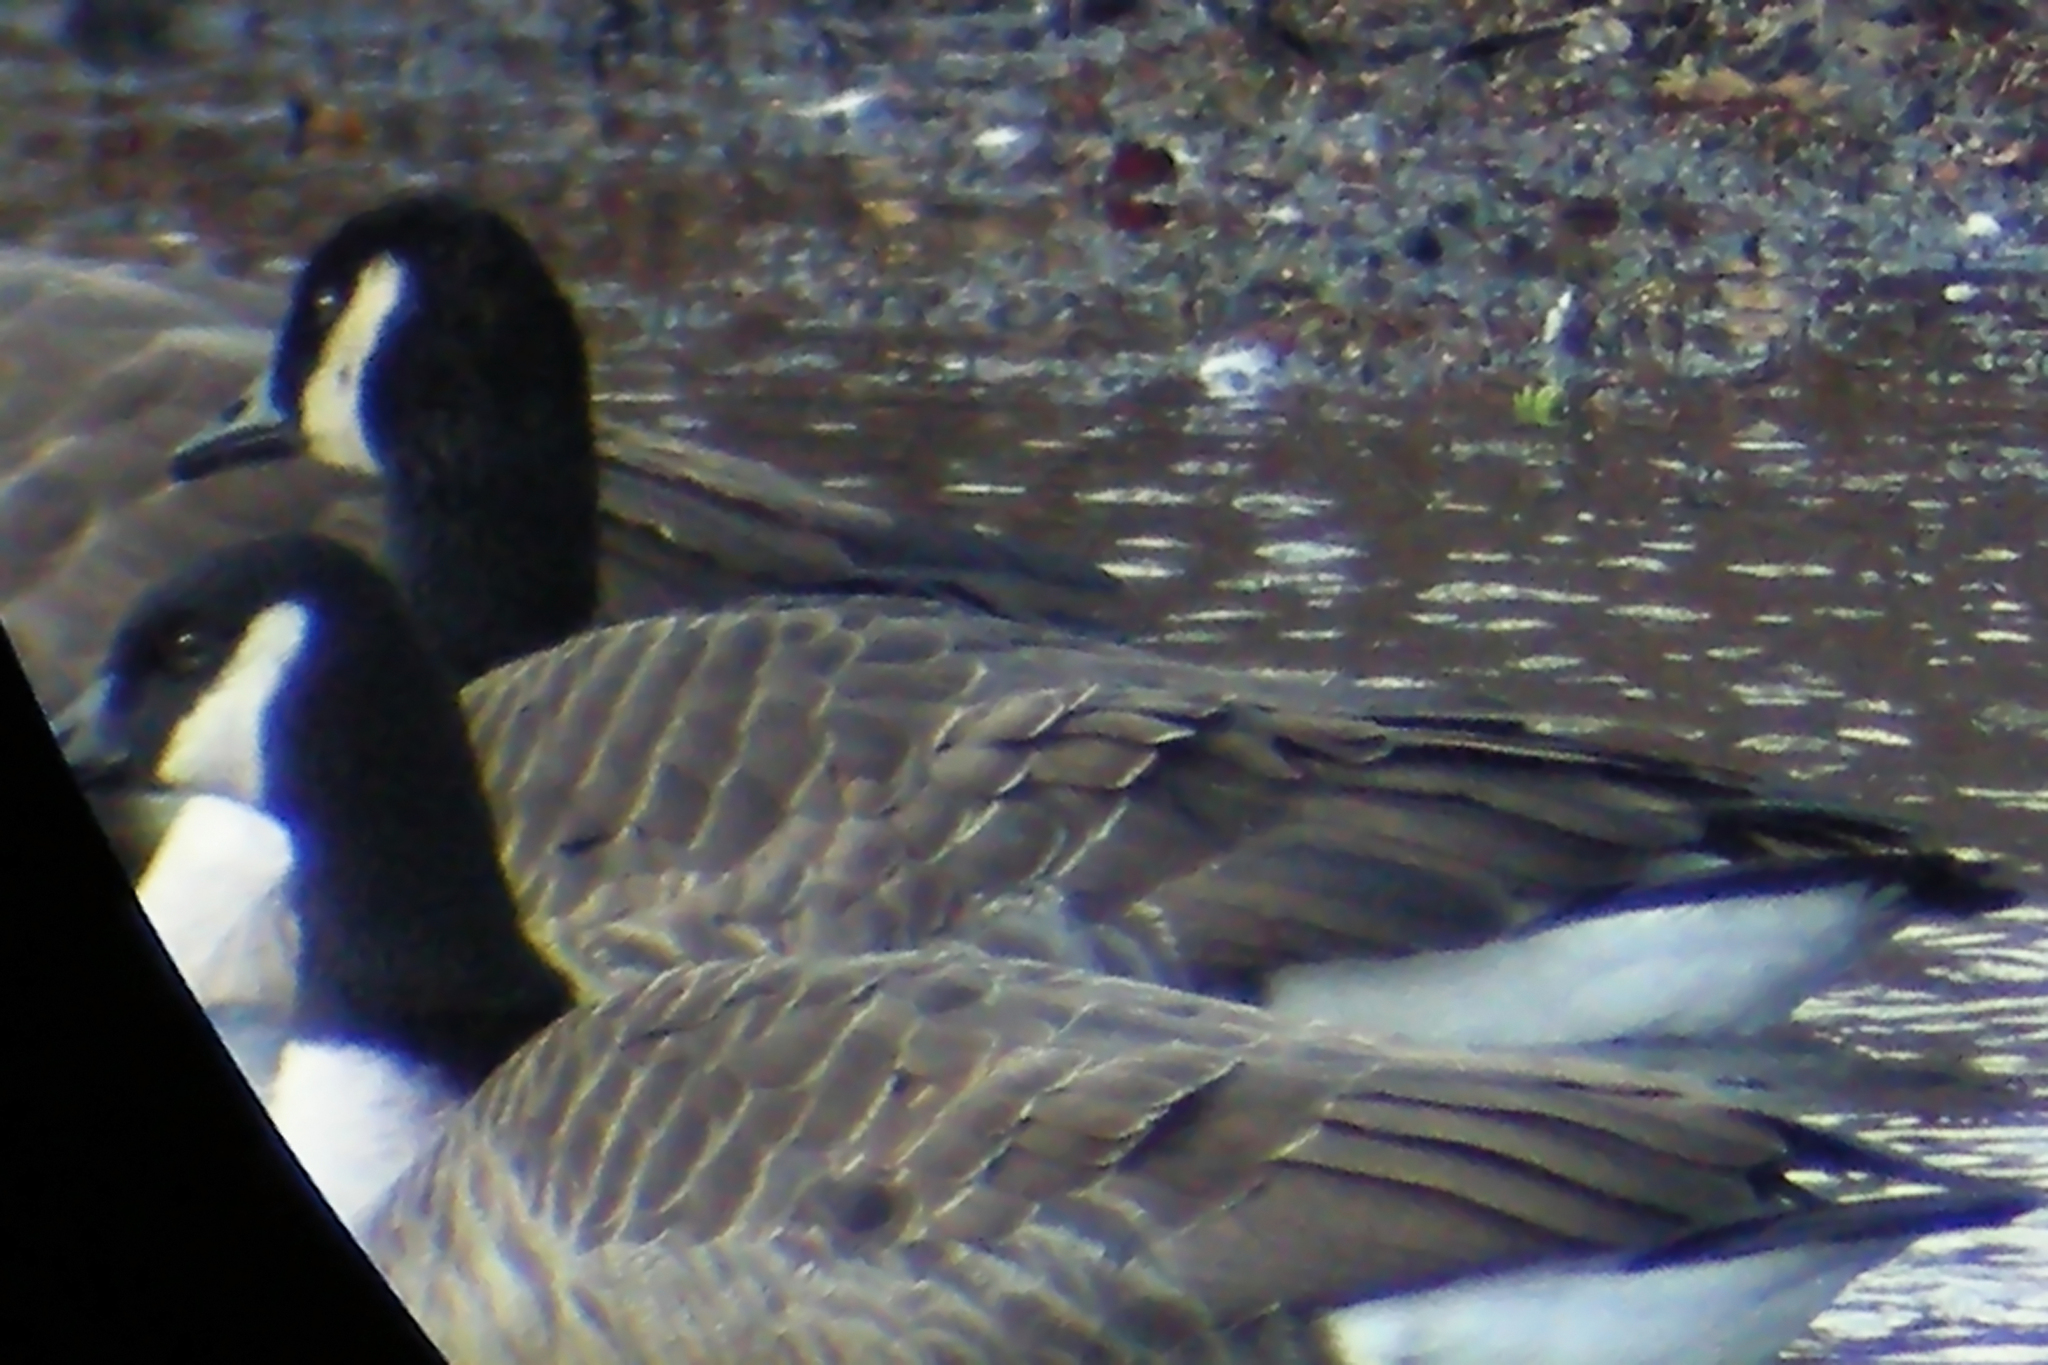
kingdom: Animalia
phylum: Chordata
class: Aves
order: Anseriformes
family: Anatidae
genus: Branta
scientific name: Branta canadensis
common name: Canada goose
